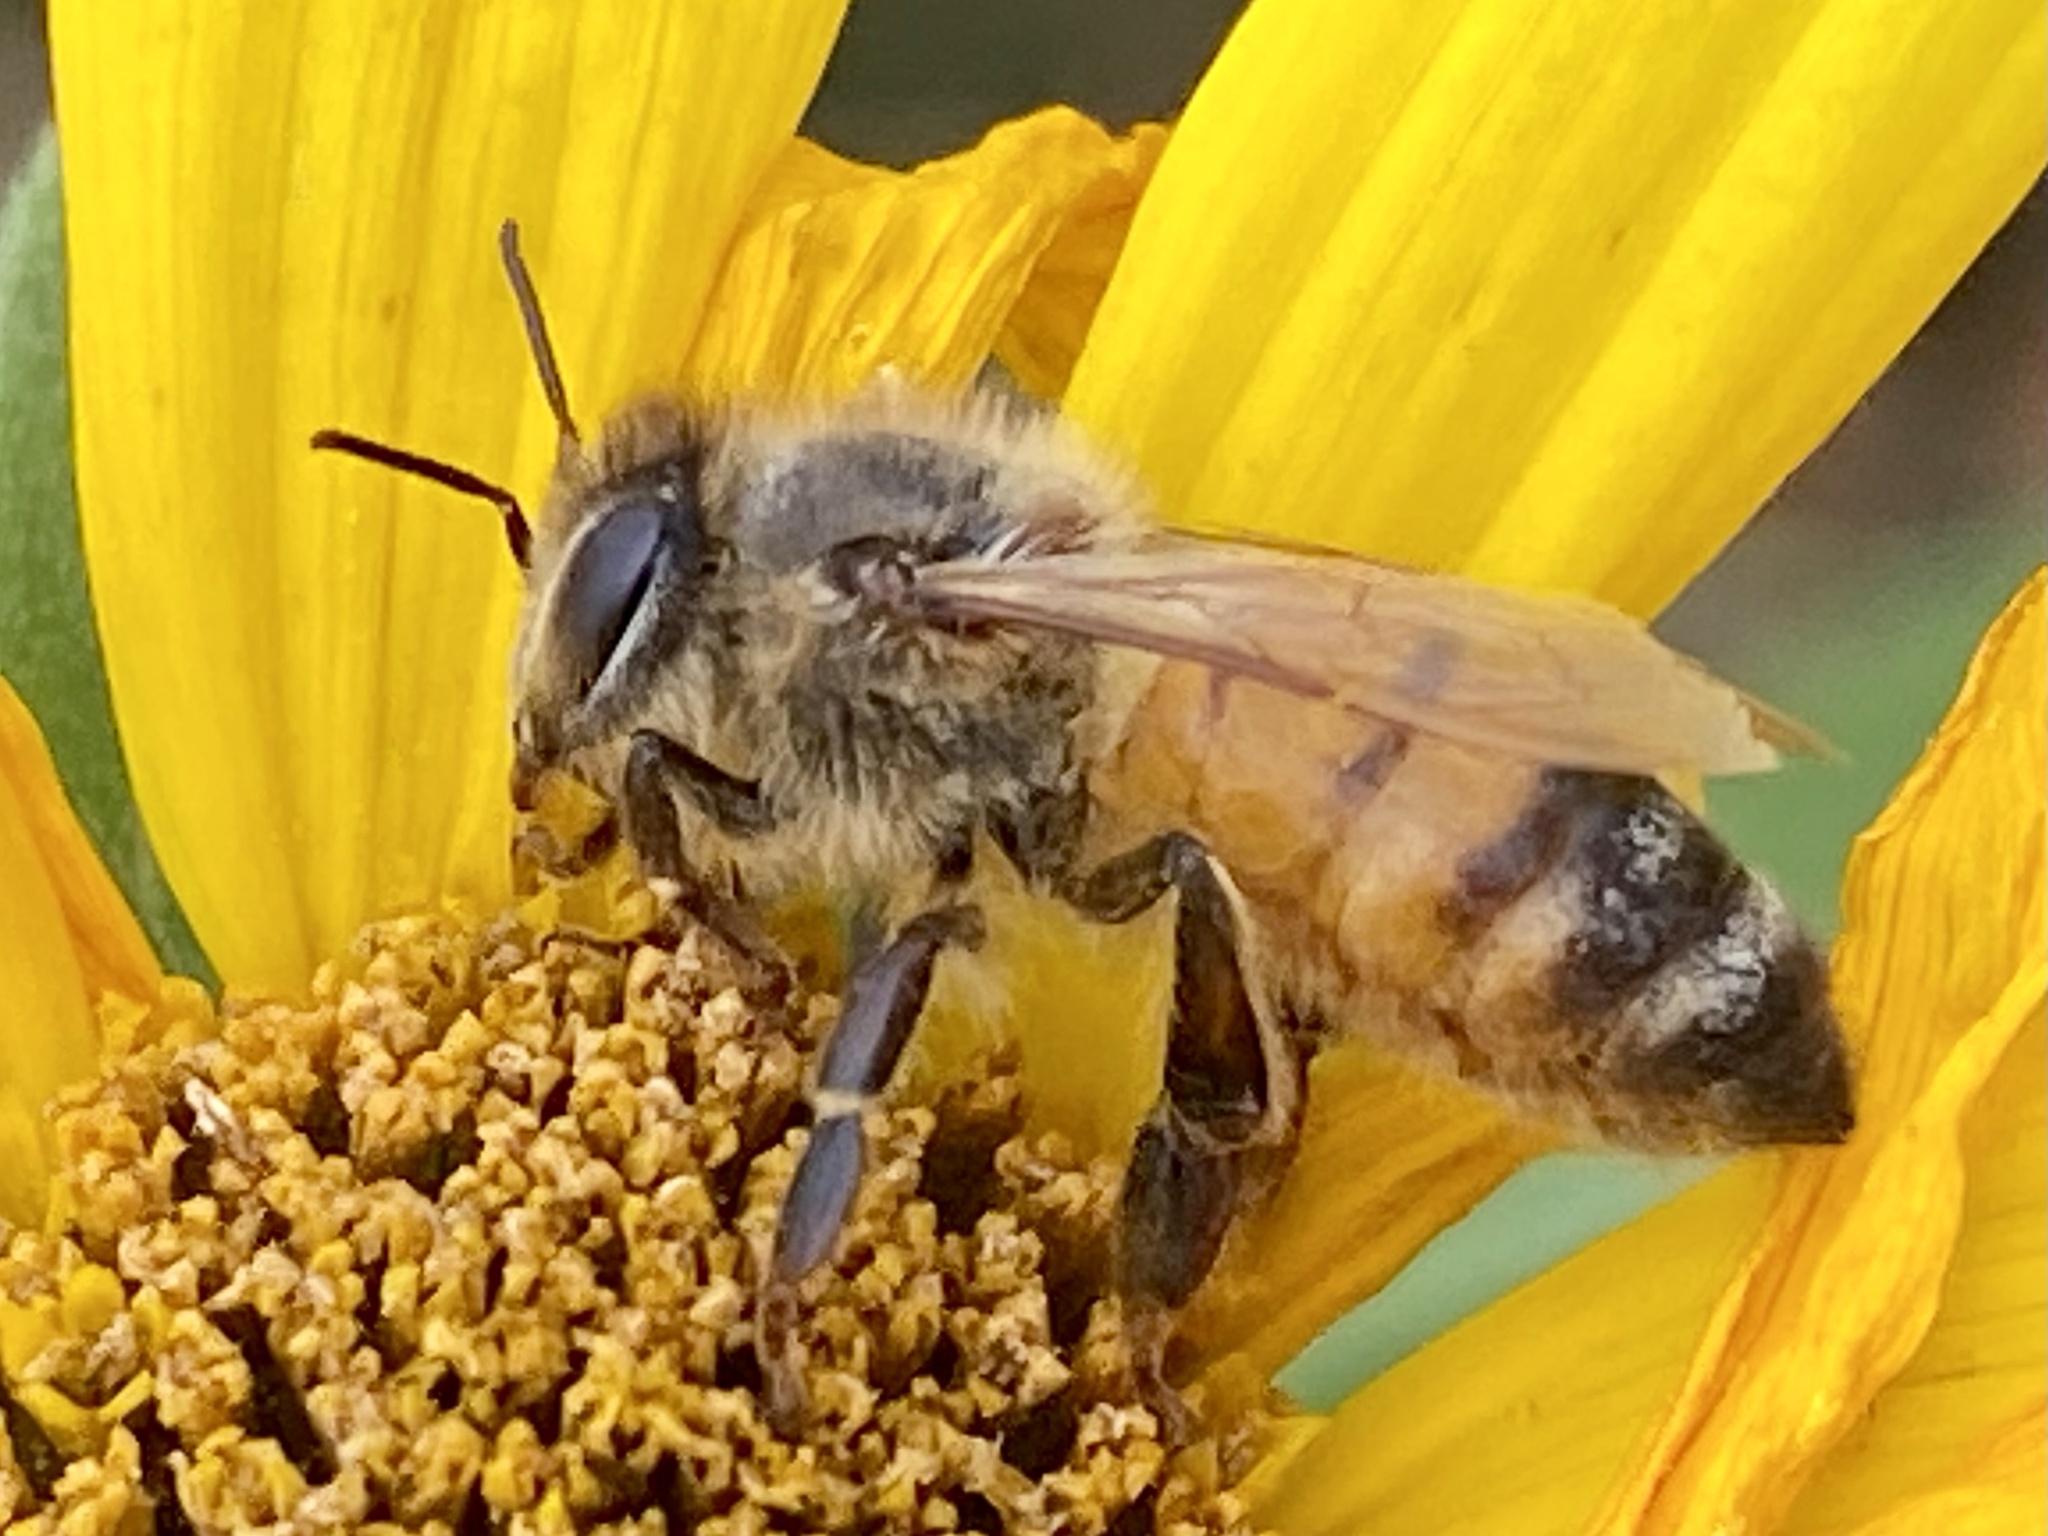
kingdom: Animalia
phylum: Arthropoda
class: Insecta
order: Hymenoptera
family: Apidae
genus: Apis
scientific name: Apis mellifera
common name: Honey bee
